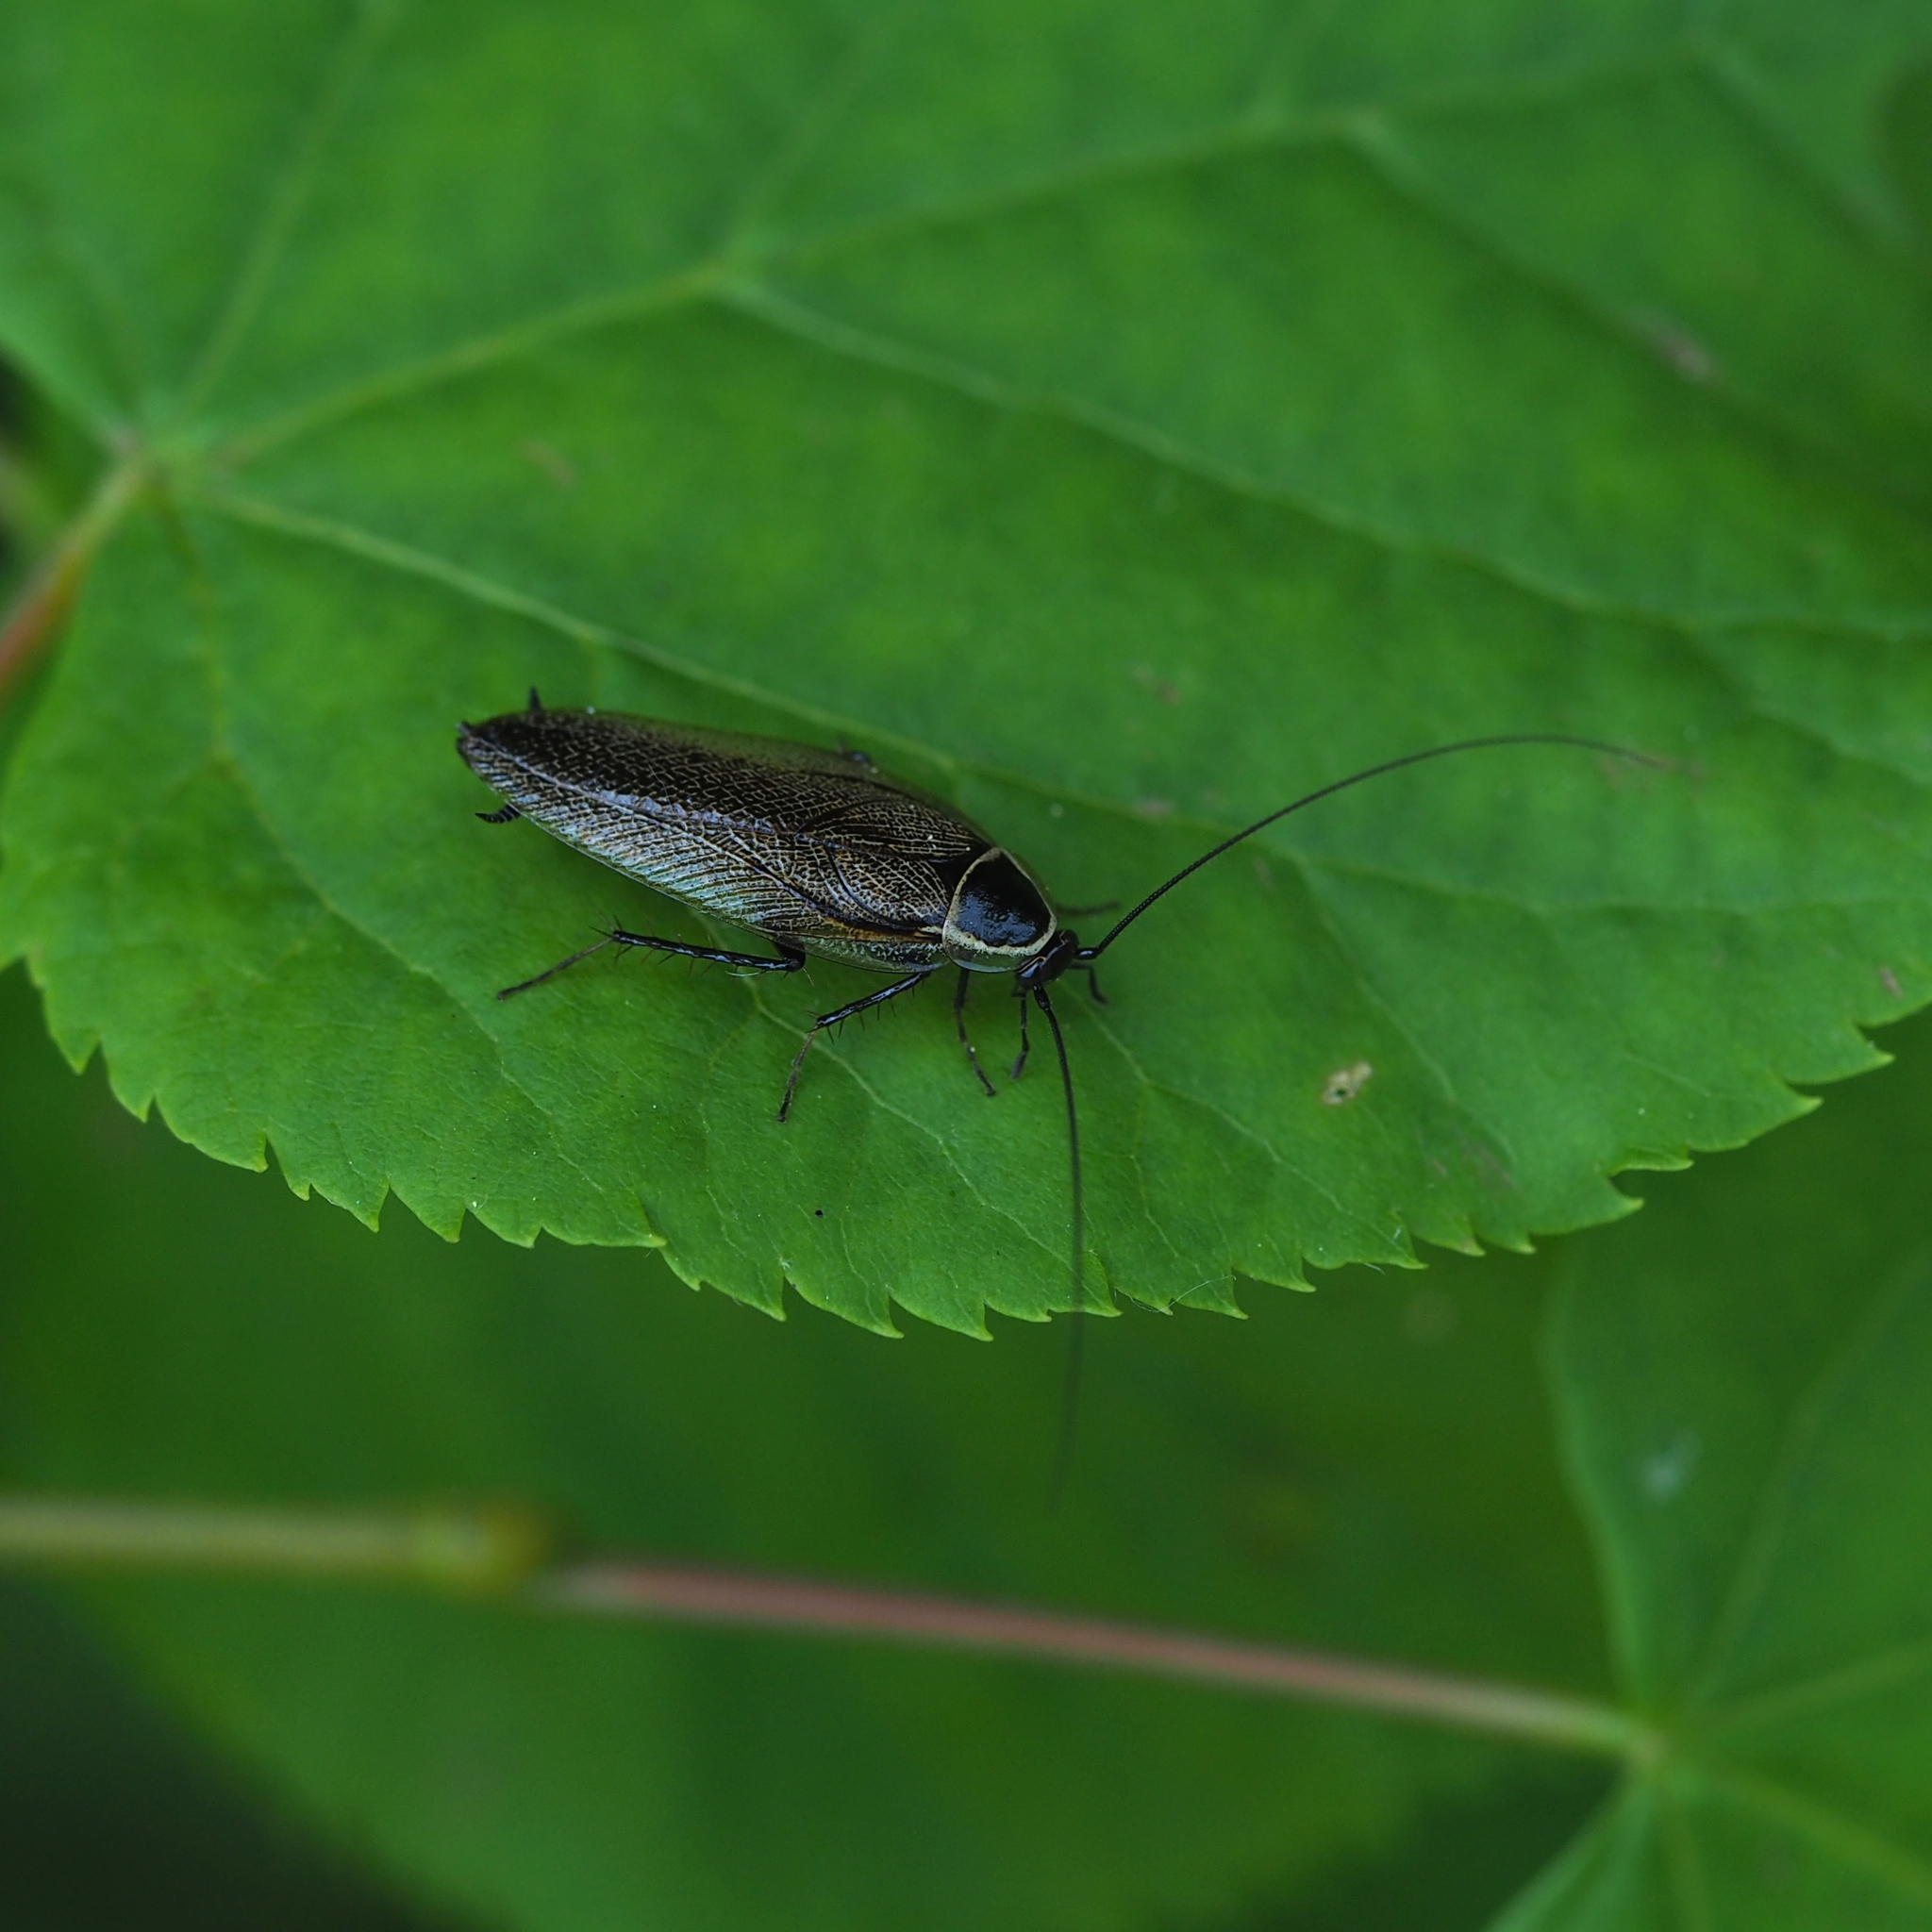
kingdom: Animalia
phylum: Arthropoda
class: Insecta
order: Blattodea
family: Ectobiidae
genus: Ectobius
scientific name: Ectobius sylvestris
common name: Forest cockroach
